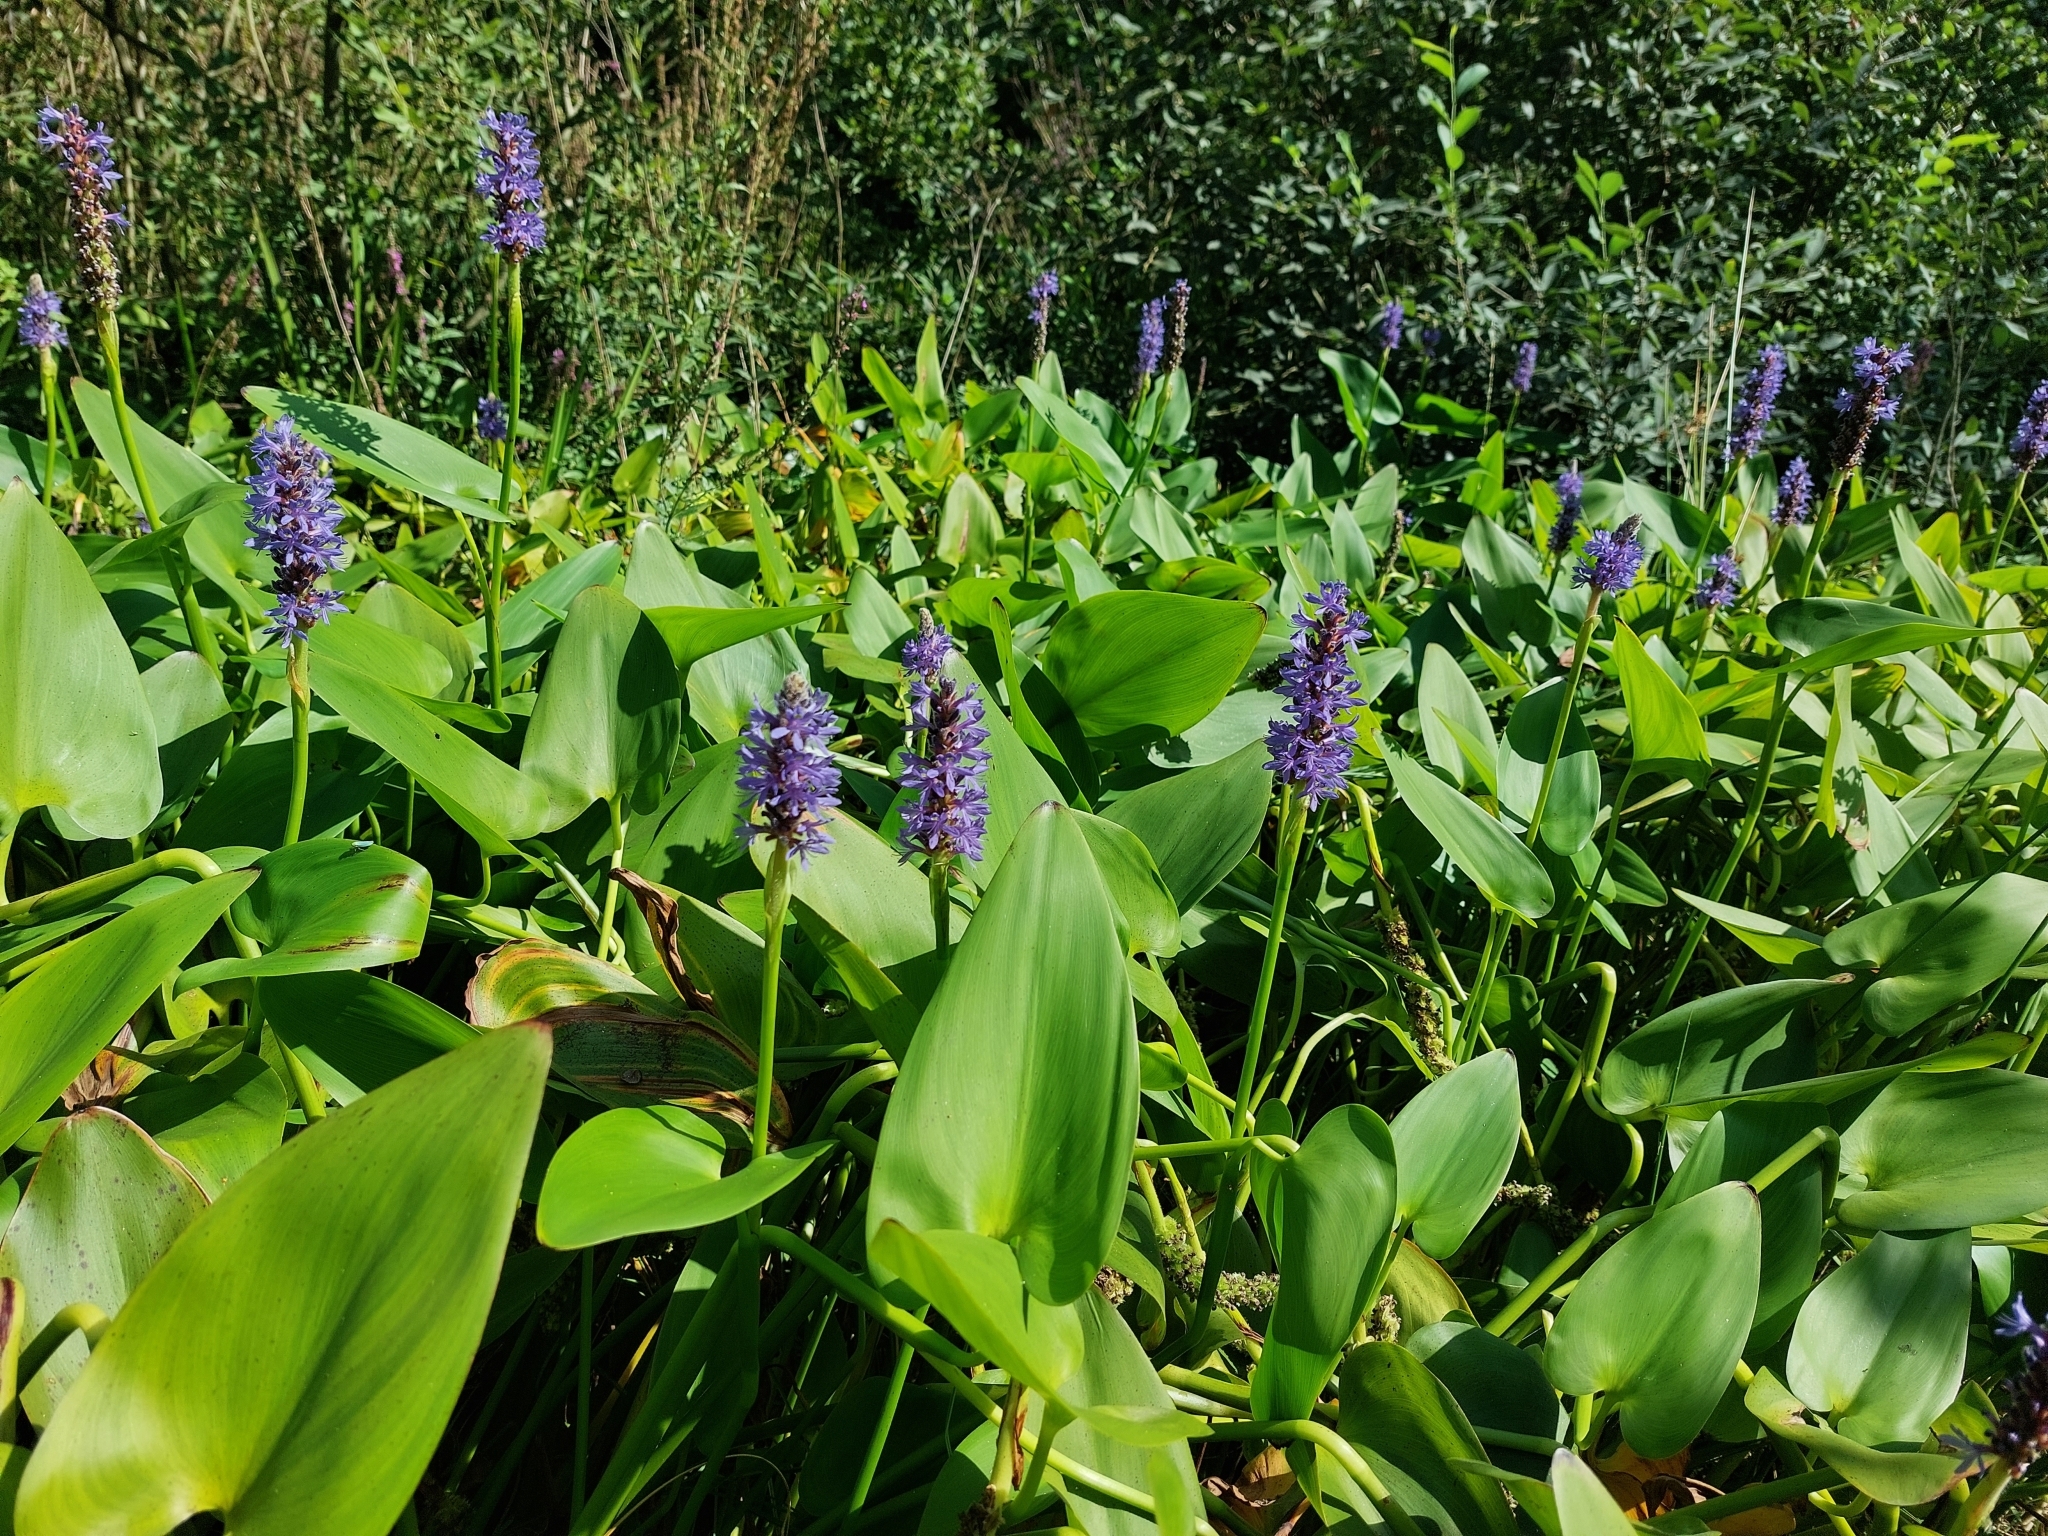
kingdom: Plantae
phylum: Tracheophyta
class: Liliopsida
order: Commelinales
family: Pontederiaceae
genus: Pontederia
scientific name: Pontederia cordata
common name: Pickerelweed
